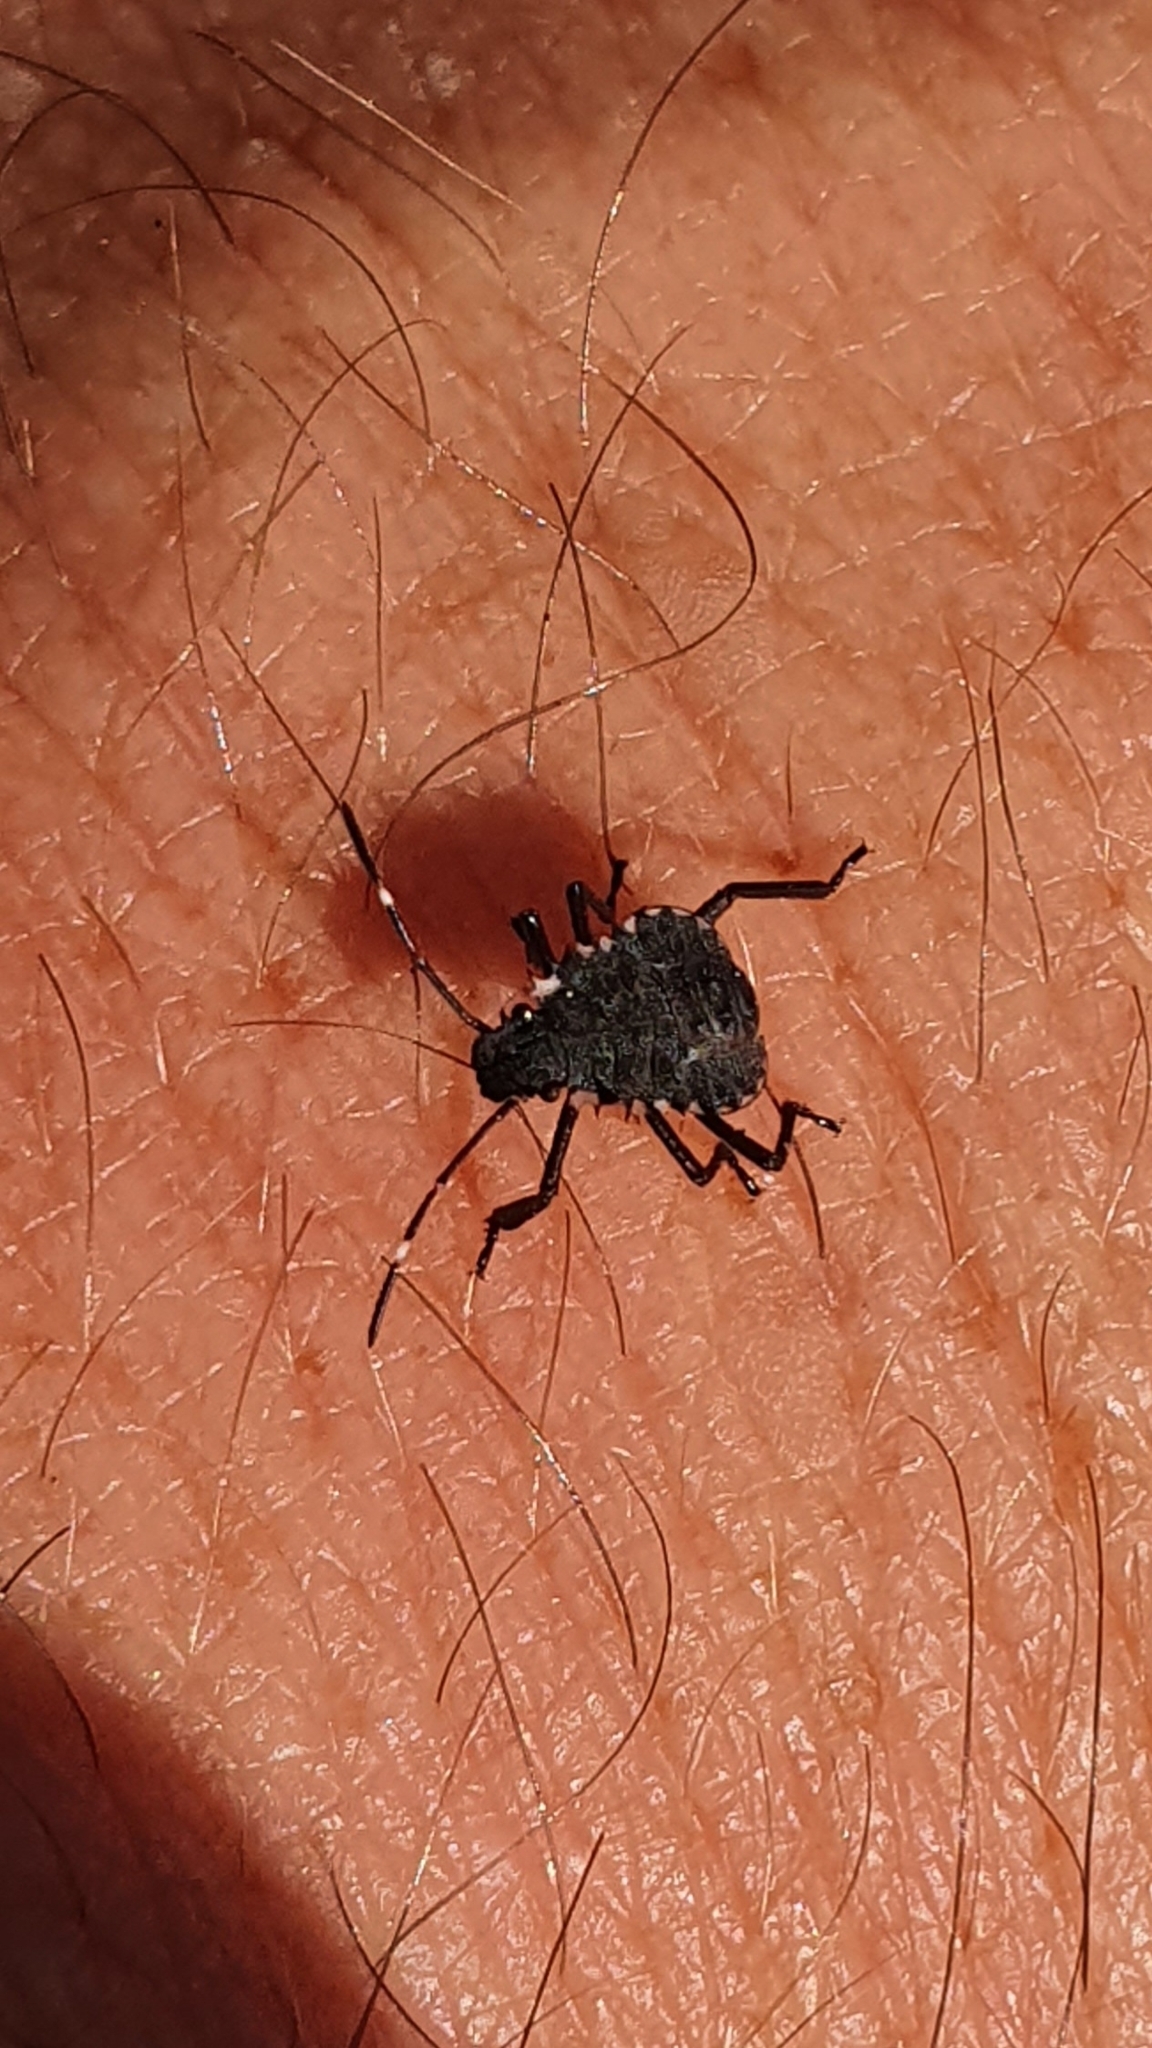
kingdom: Animalia
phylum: Arthropoda
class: Insecta
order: Hemiptera
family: Pentatomidae
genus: Halyomorpha
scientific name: Halyomorpha halys
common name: Brown marmorated stink bug
